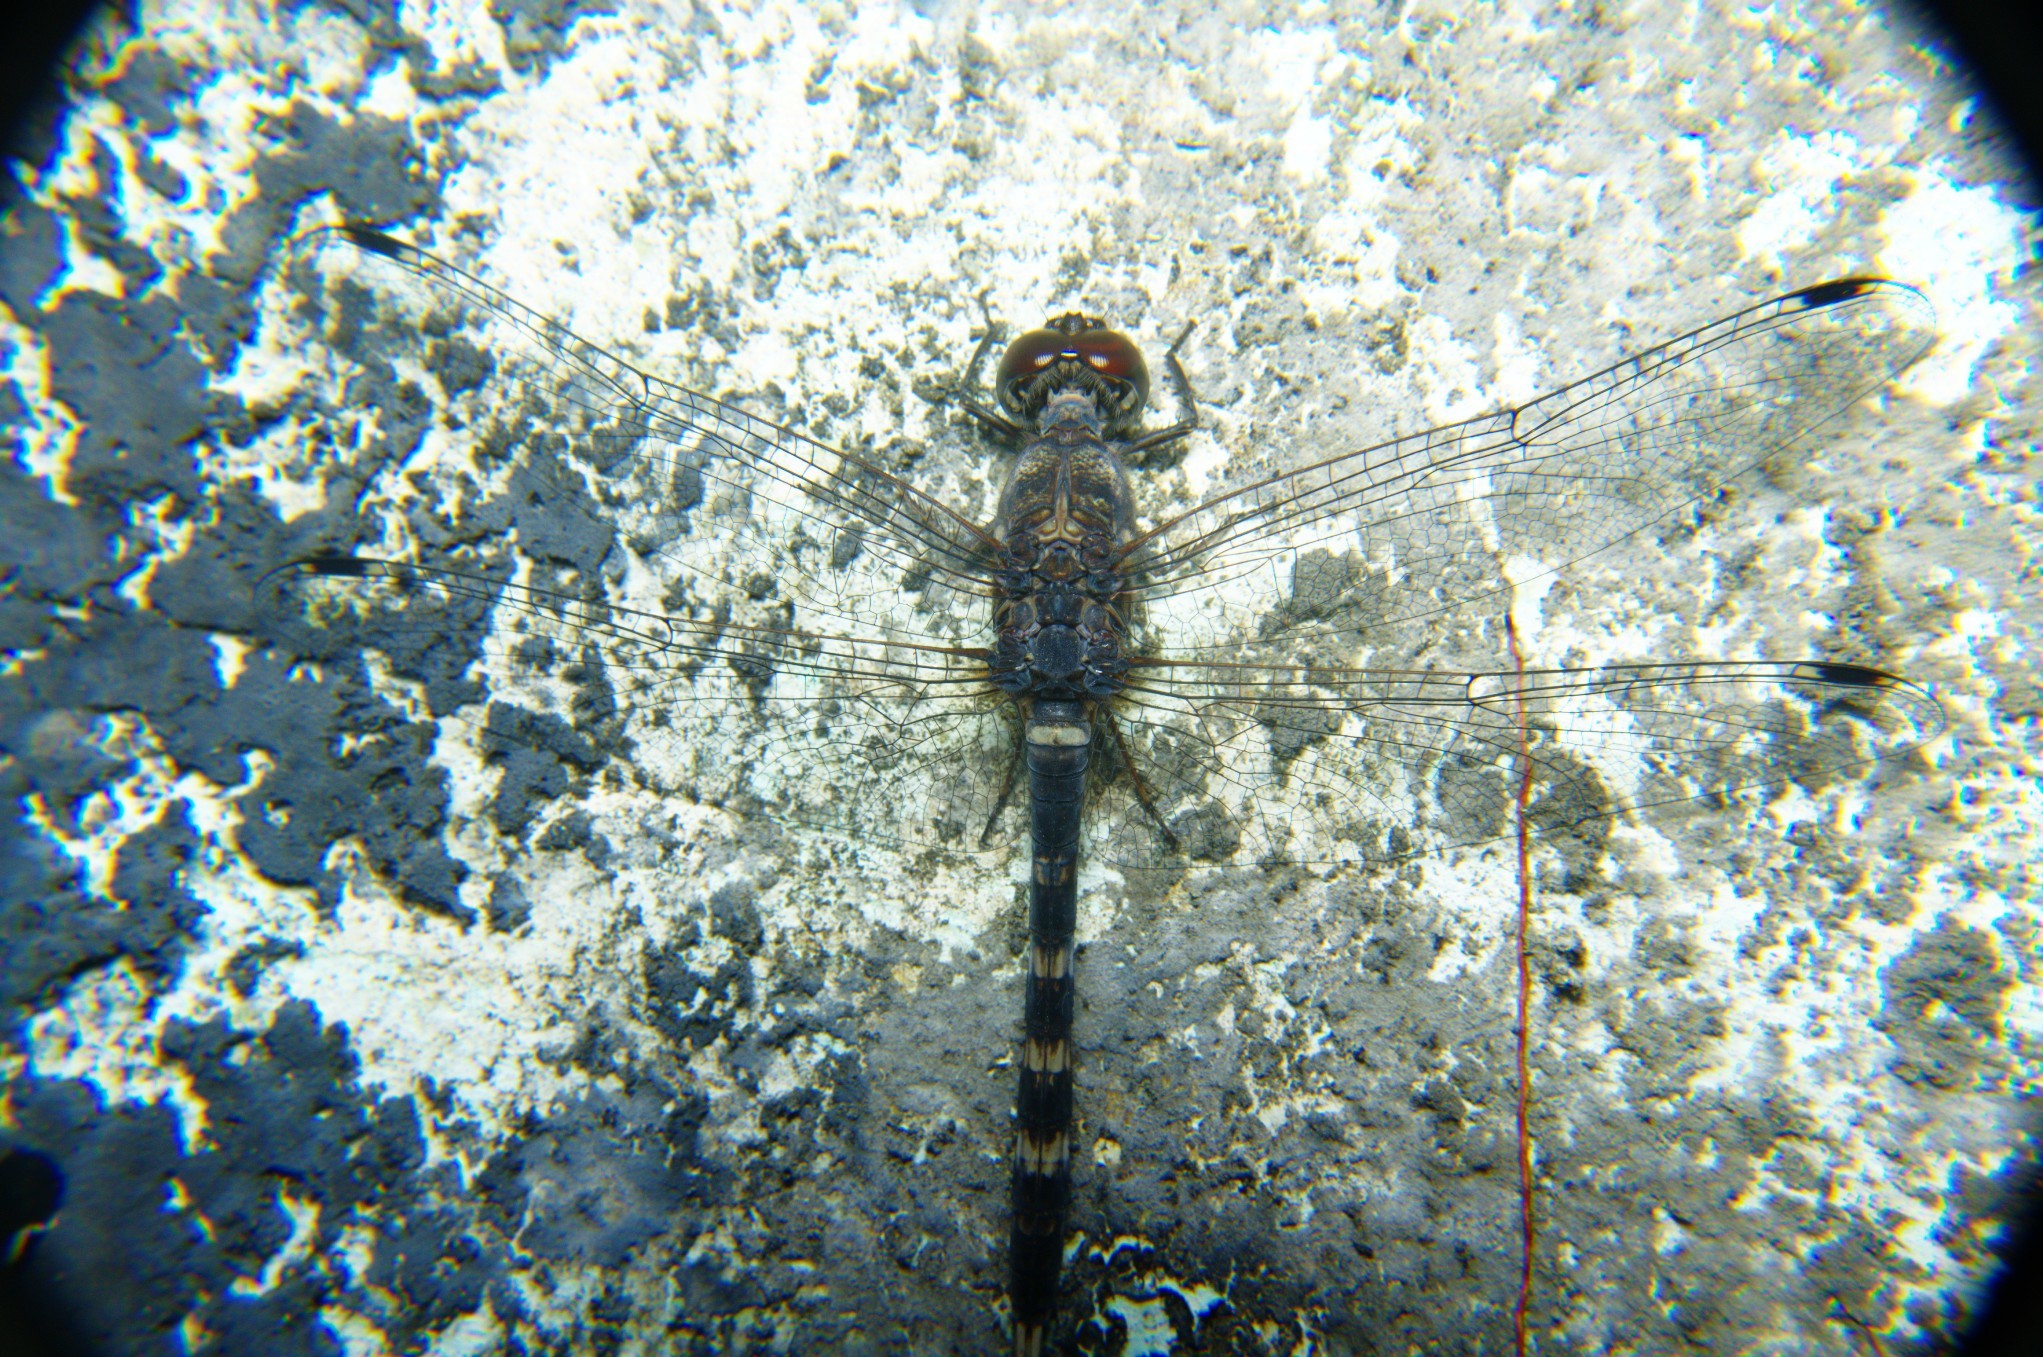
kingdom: Animalia
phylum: Arthropoda
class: Insecta
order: Odonata
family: Libellulidae
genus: Bradinopyga
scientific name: Bradinopyga geminata
